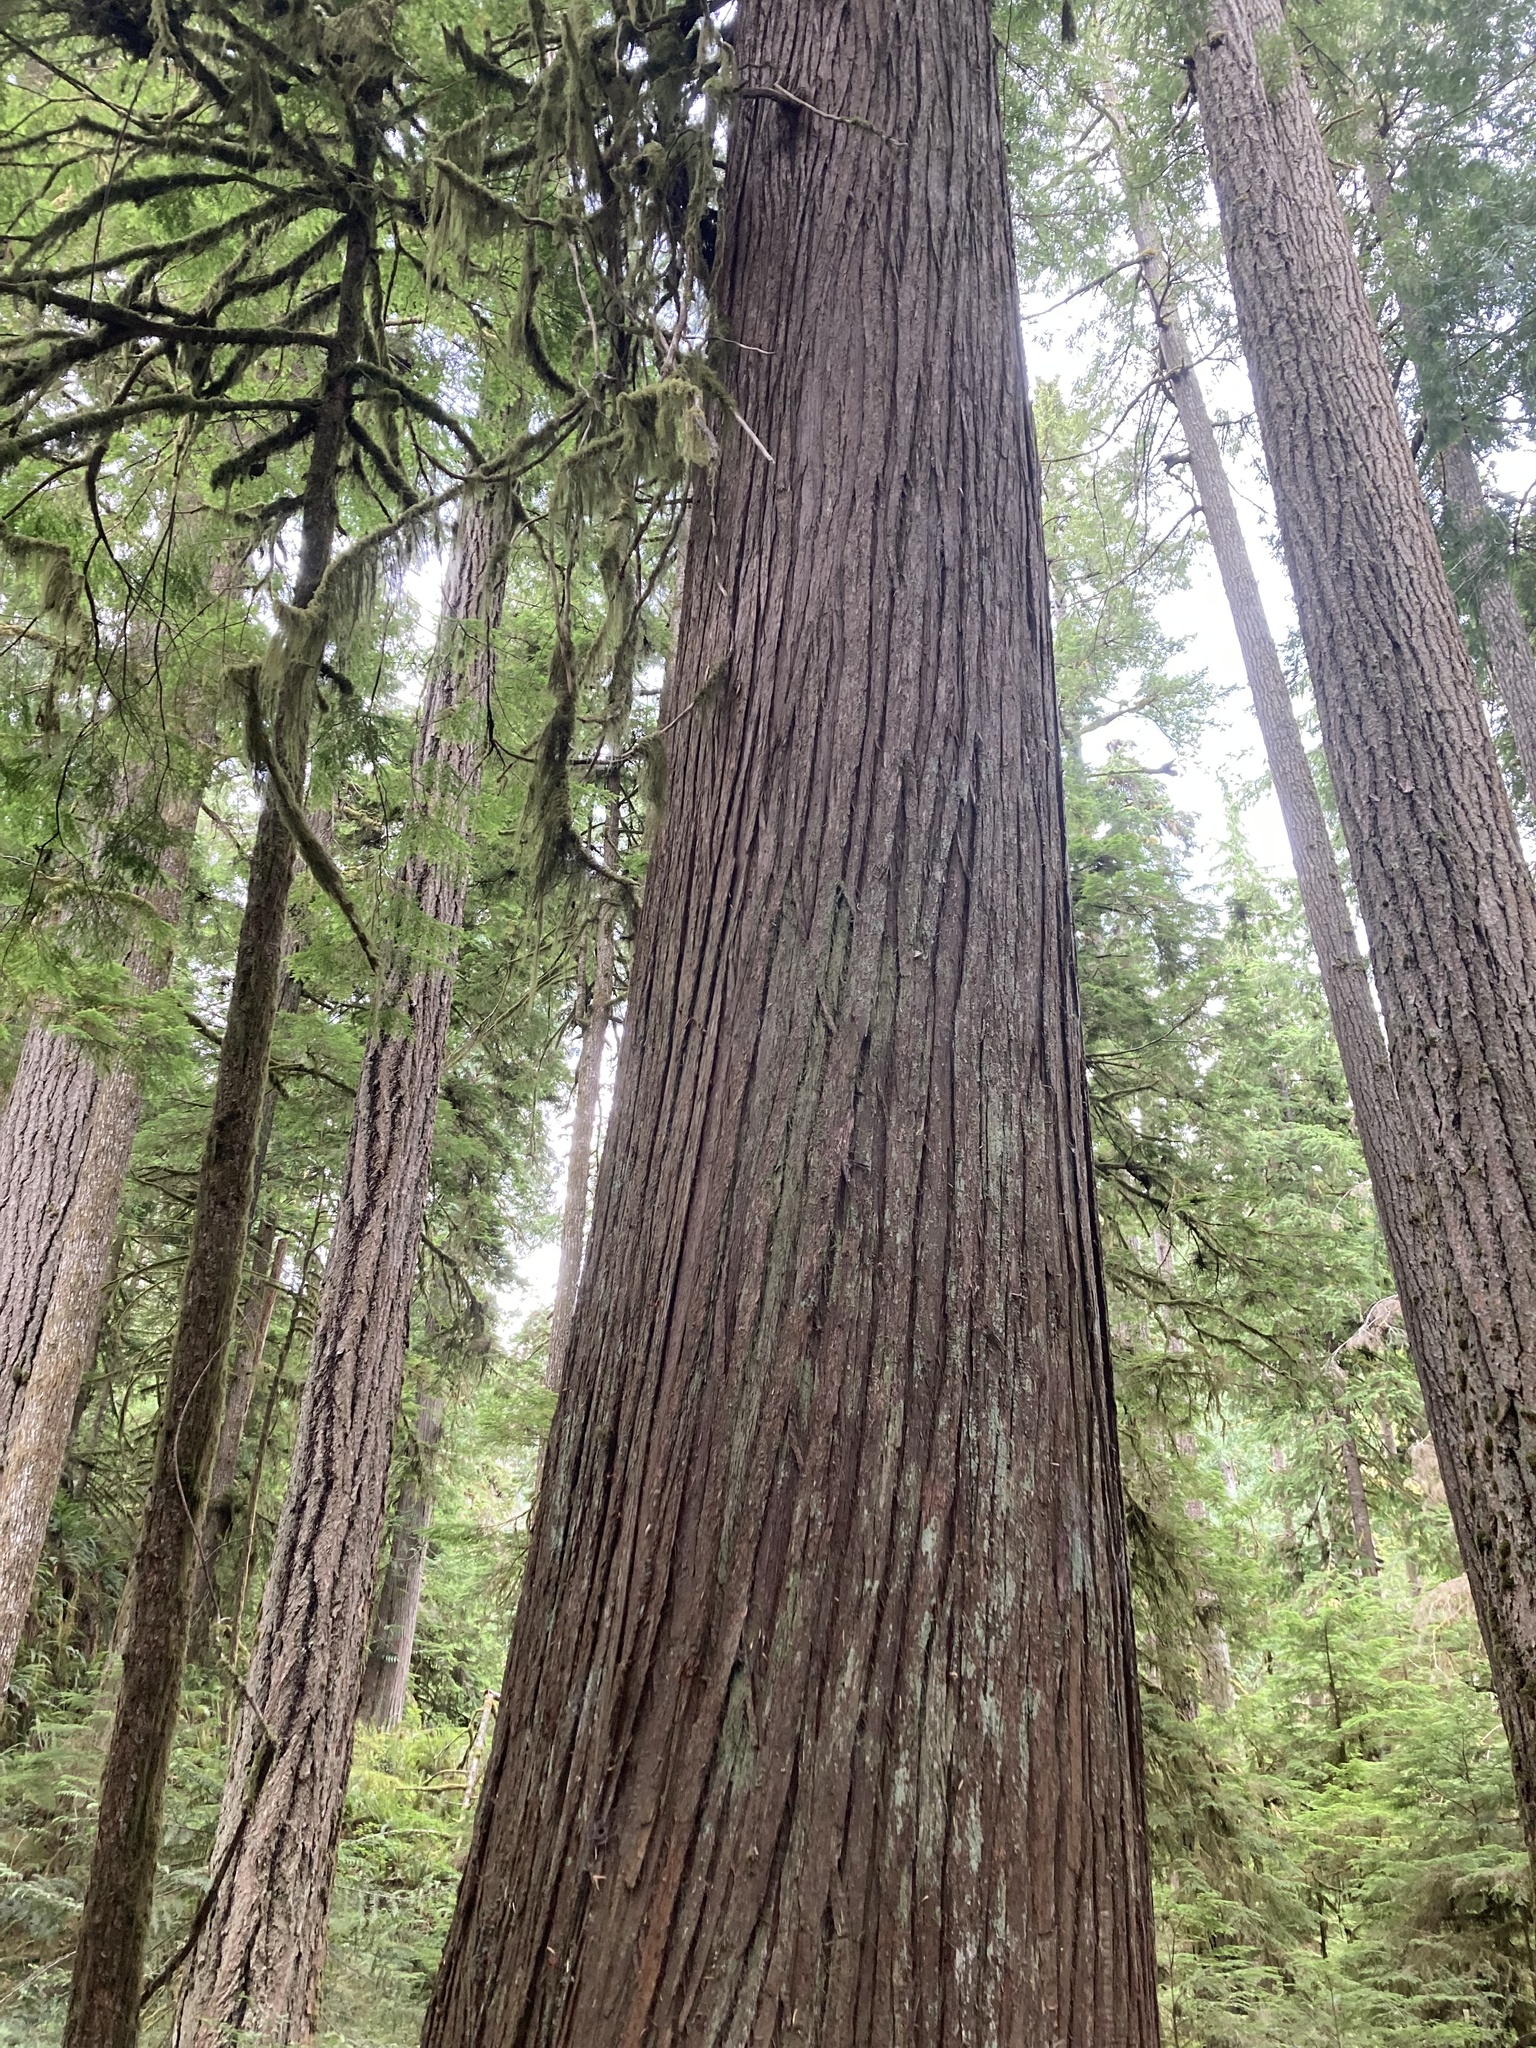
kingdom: Plantae
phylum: Tracheophyta
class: Pinopsida
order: Pinales
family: Cupressaceae
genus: Thuja
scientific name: Thuja plicata
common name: Western red-cedar
